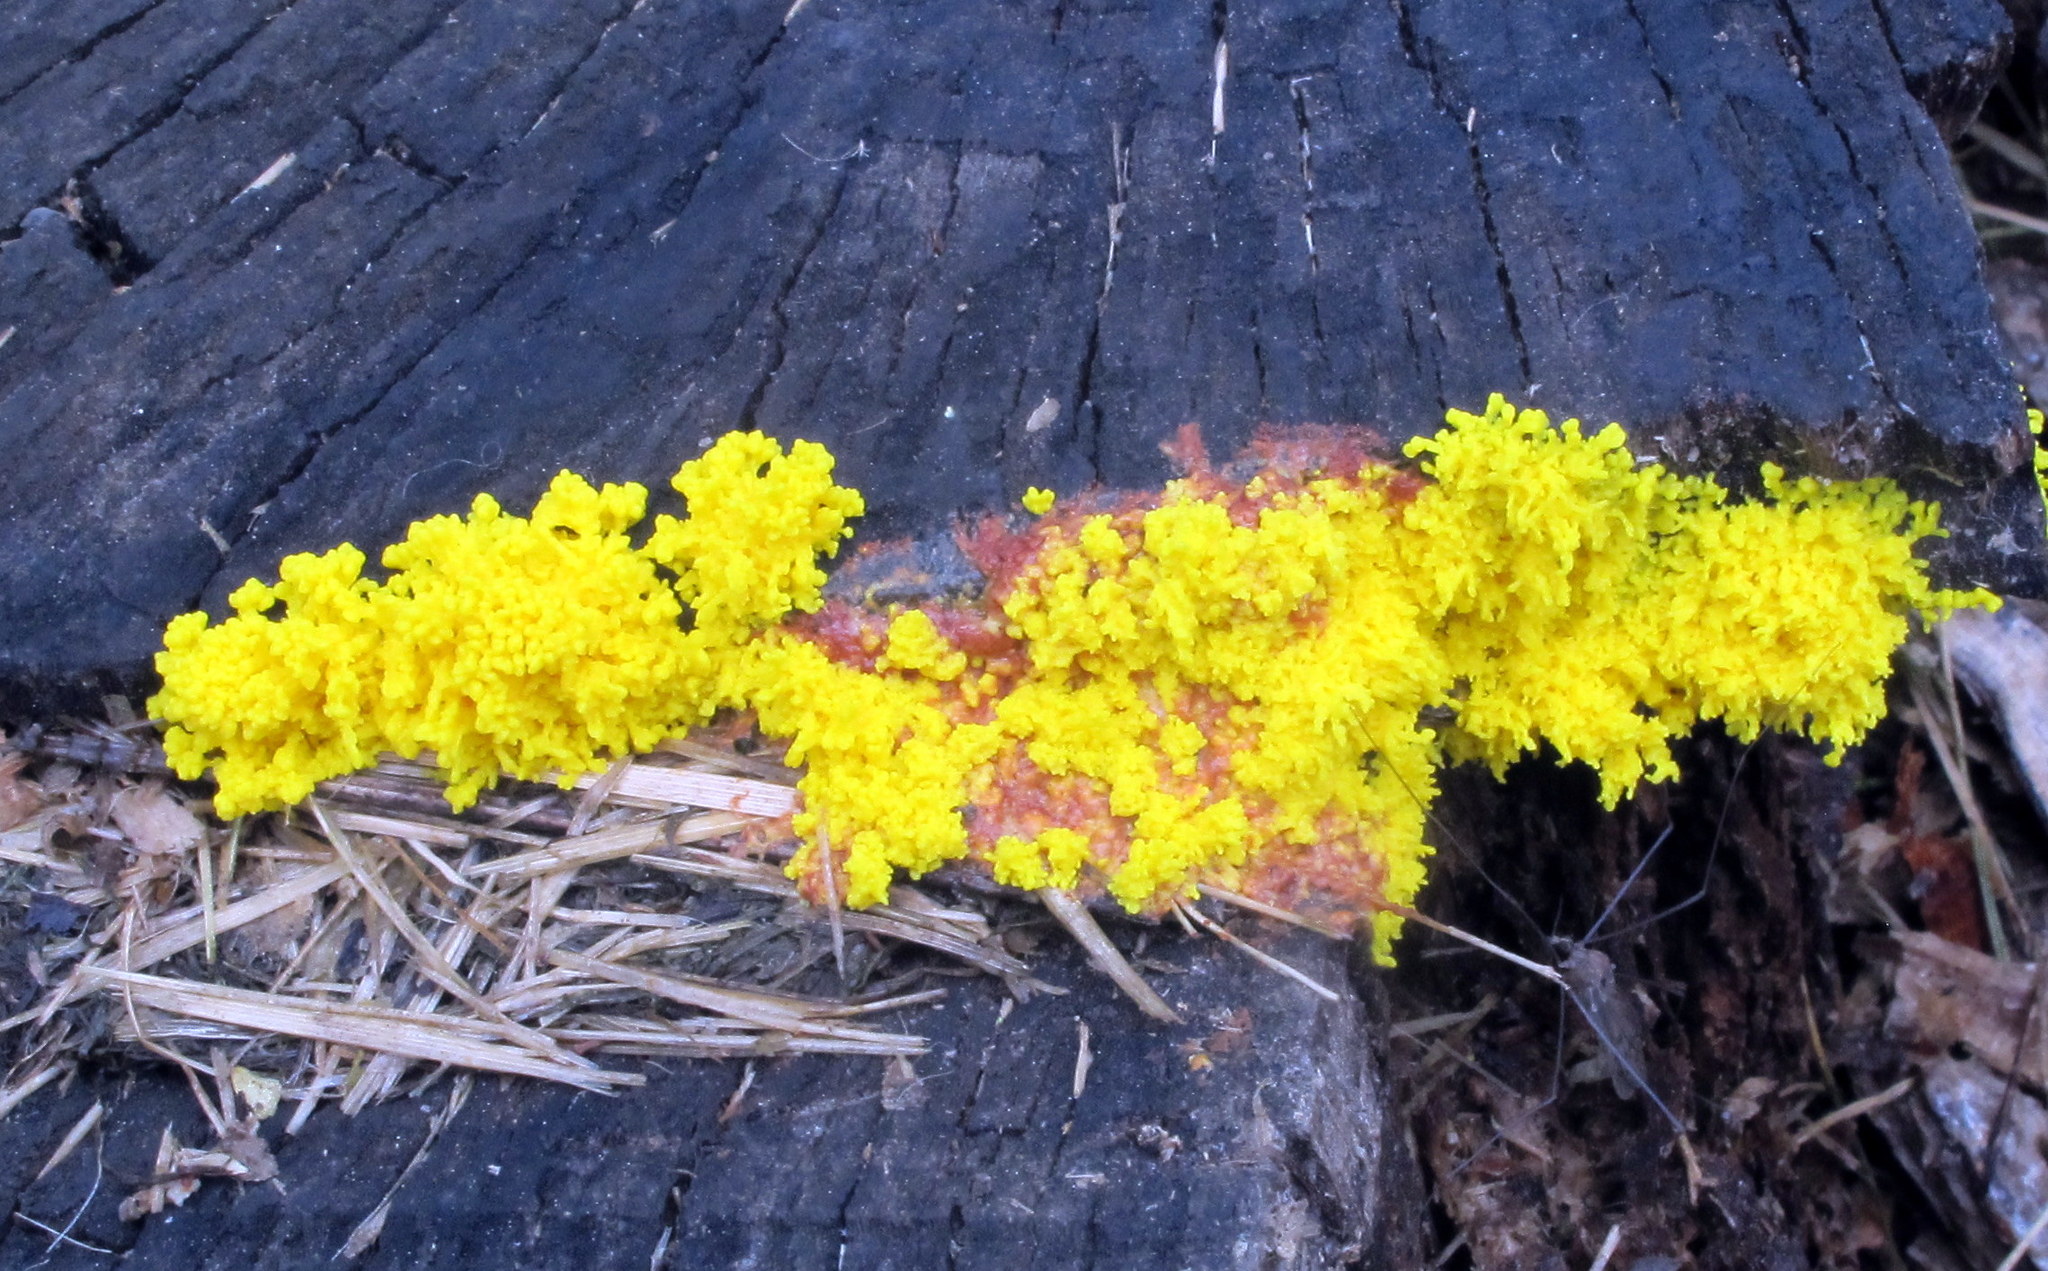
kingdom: Protozoa
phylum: Mycetozoa
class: Myxomycetes
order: Physarales
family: Physaraceae
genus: Fuligo
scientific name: Fuligo septica
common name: Dog vomit slime mold
